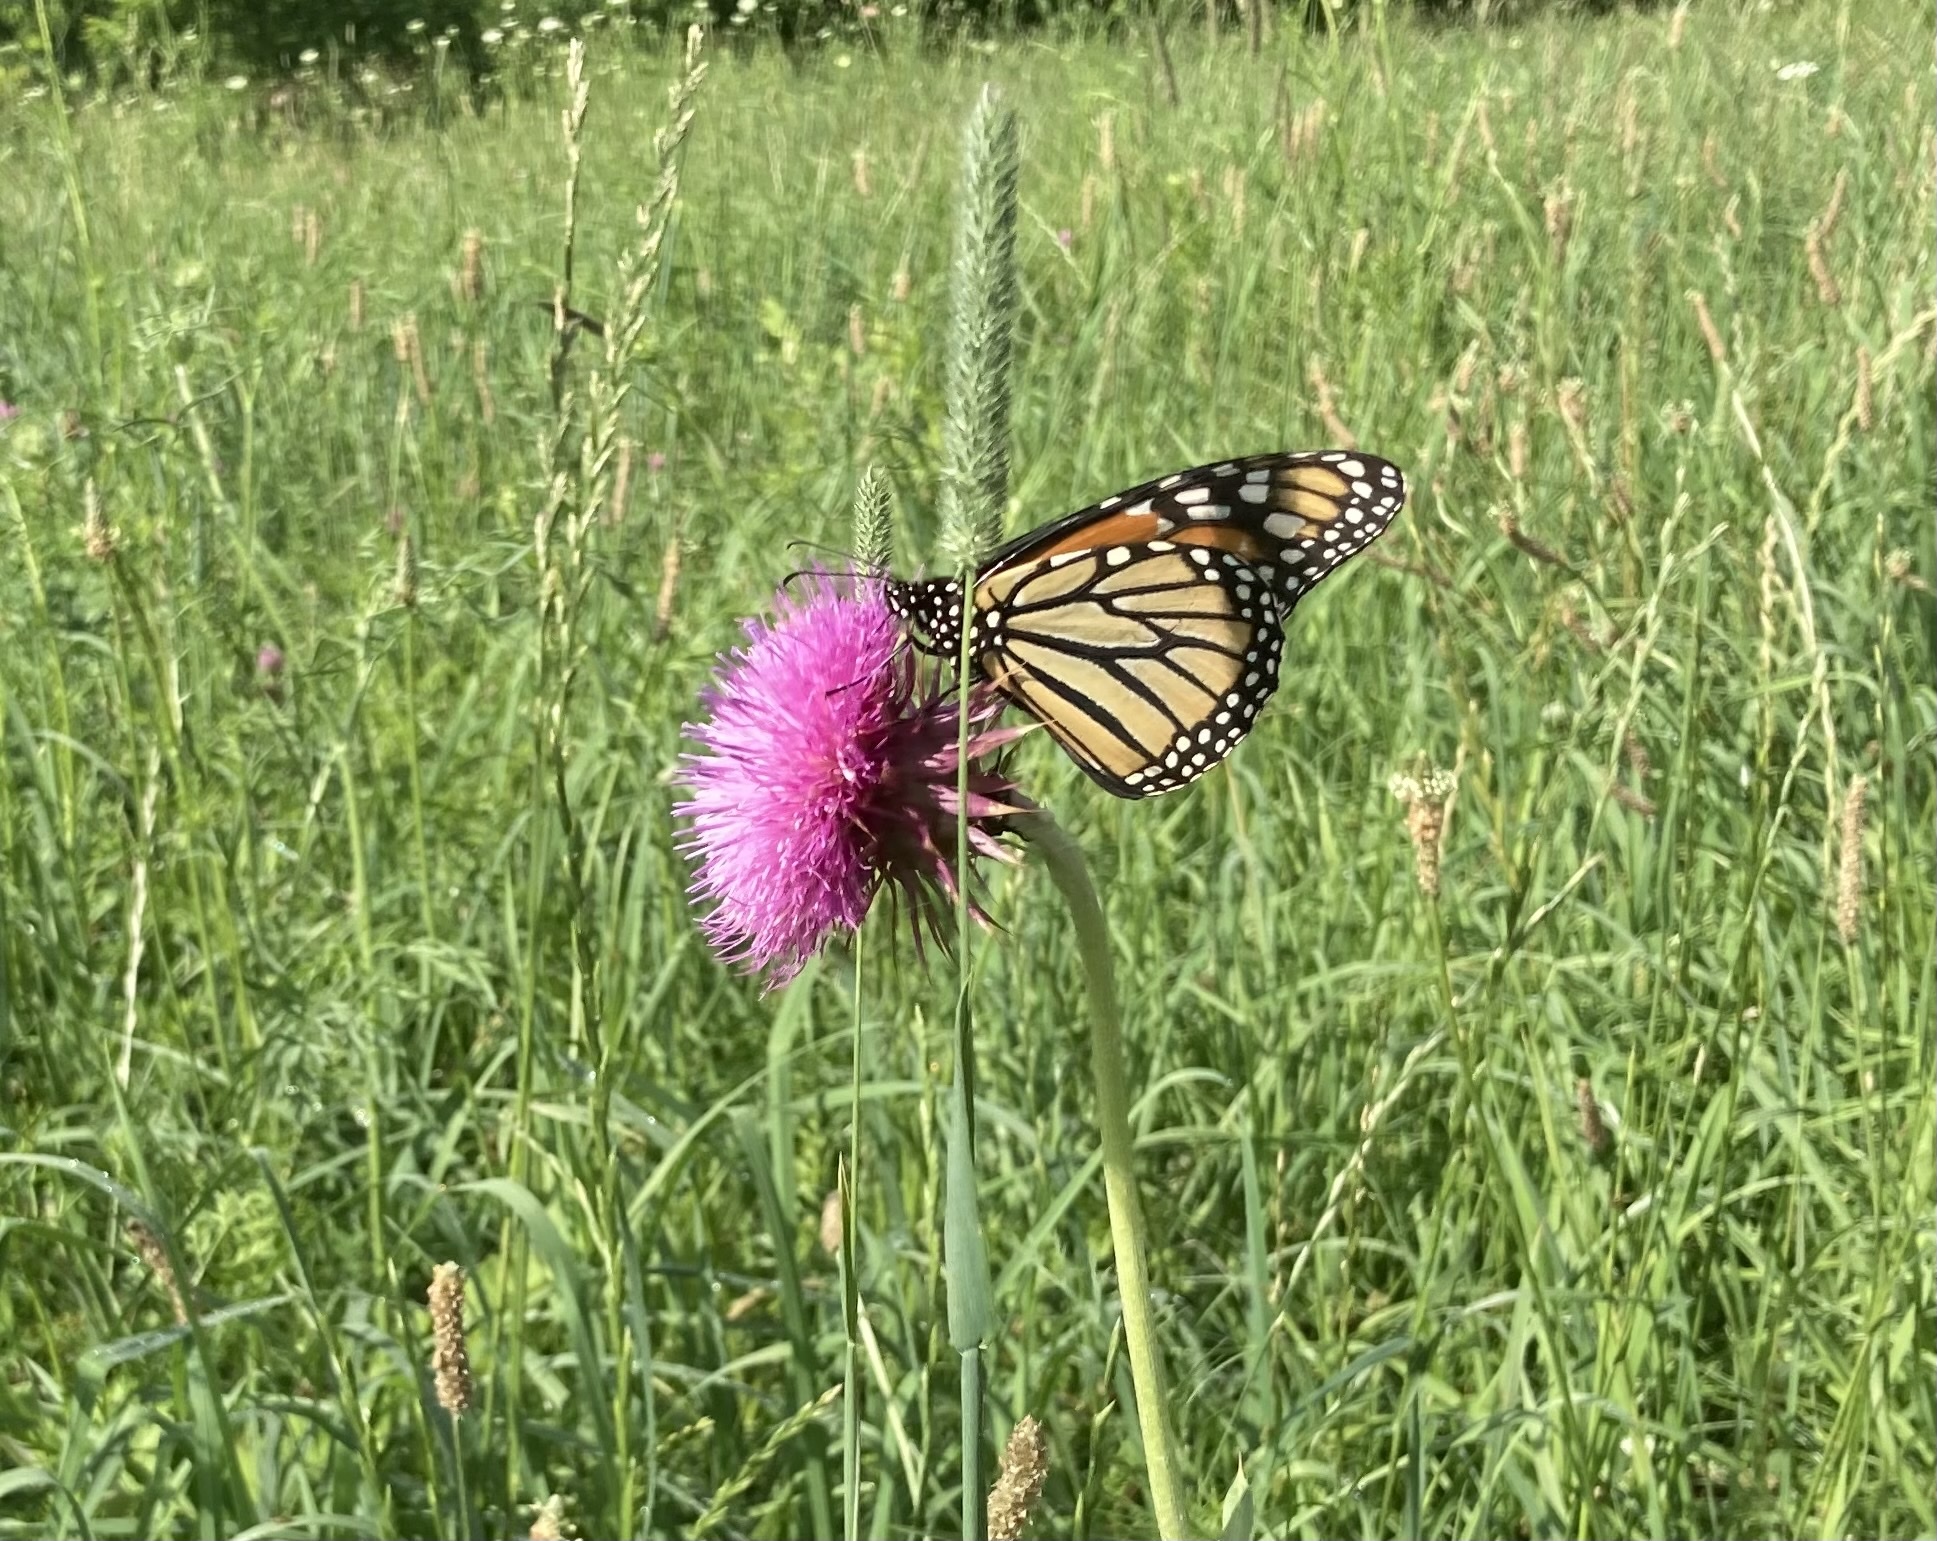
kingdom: Animalia
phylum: Arthropoda
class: Insecta
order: Lepidoptera
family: Nymphalidae
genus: Danaus
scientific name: Danaus plexippus
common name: Monarch
